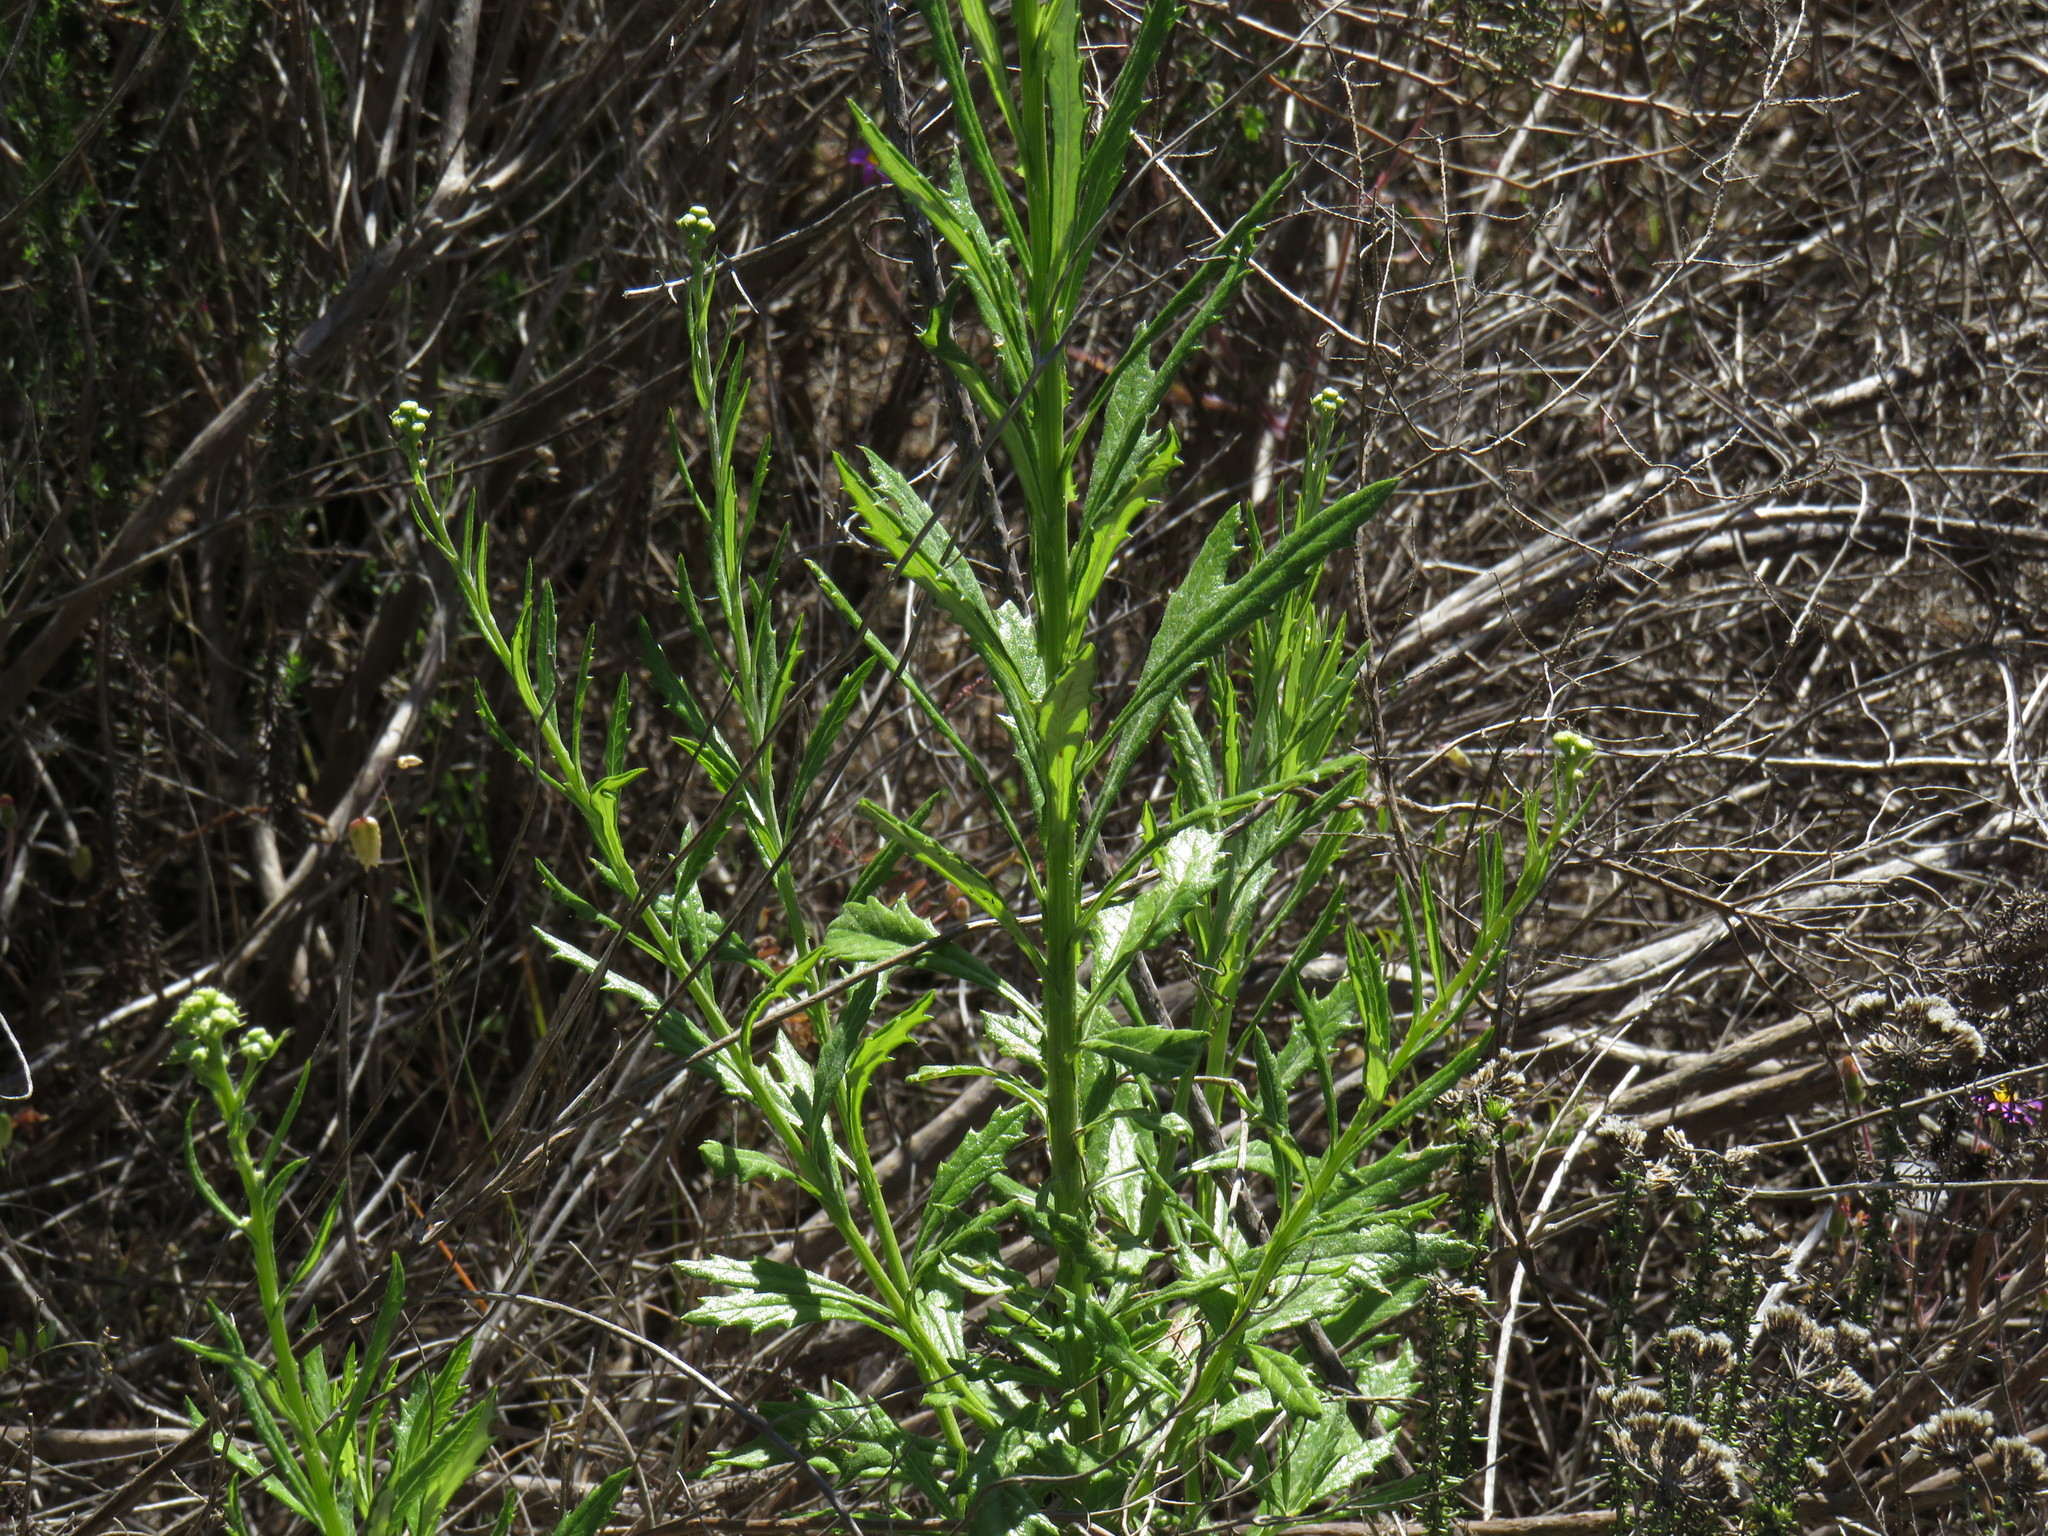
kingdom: Plantae
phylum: Tracheophyta
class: Magnoliopsida
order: Asterales
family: Asteraceae
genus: Senecio
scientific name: Senecio pterophorus
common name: Shoddy ragwort
